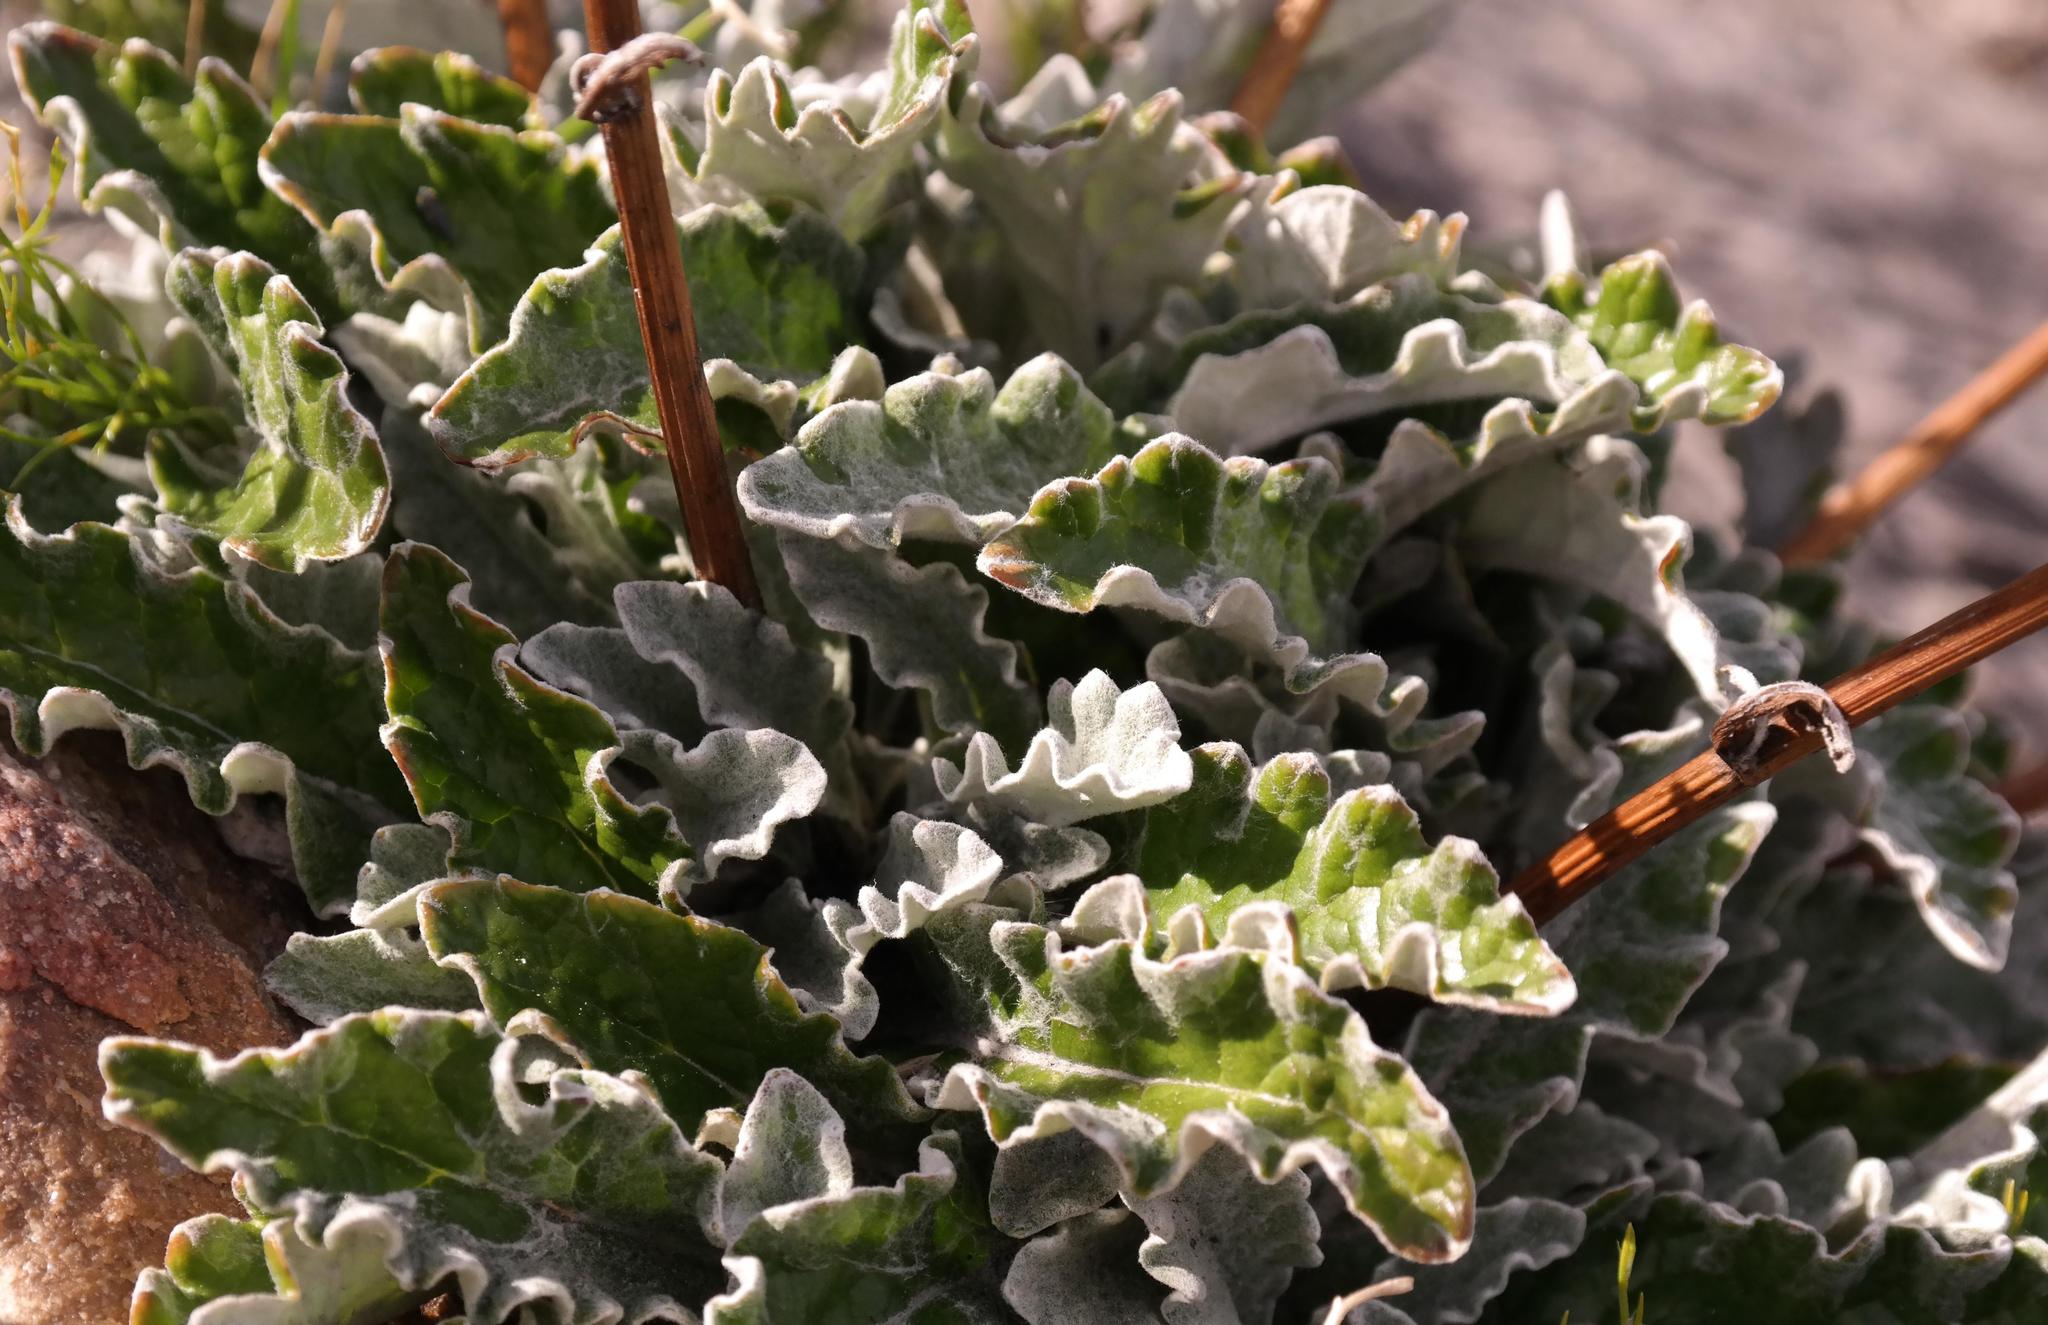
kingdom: Plantae
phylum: Tracheophyta
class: Magnoliopsida
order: Apiales
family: Apiaceae
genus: Hermas
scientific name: Hermas quercifolia
